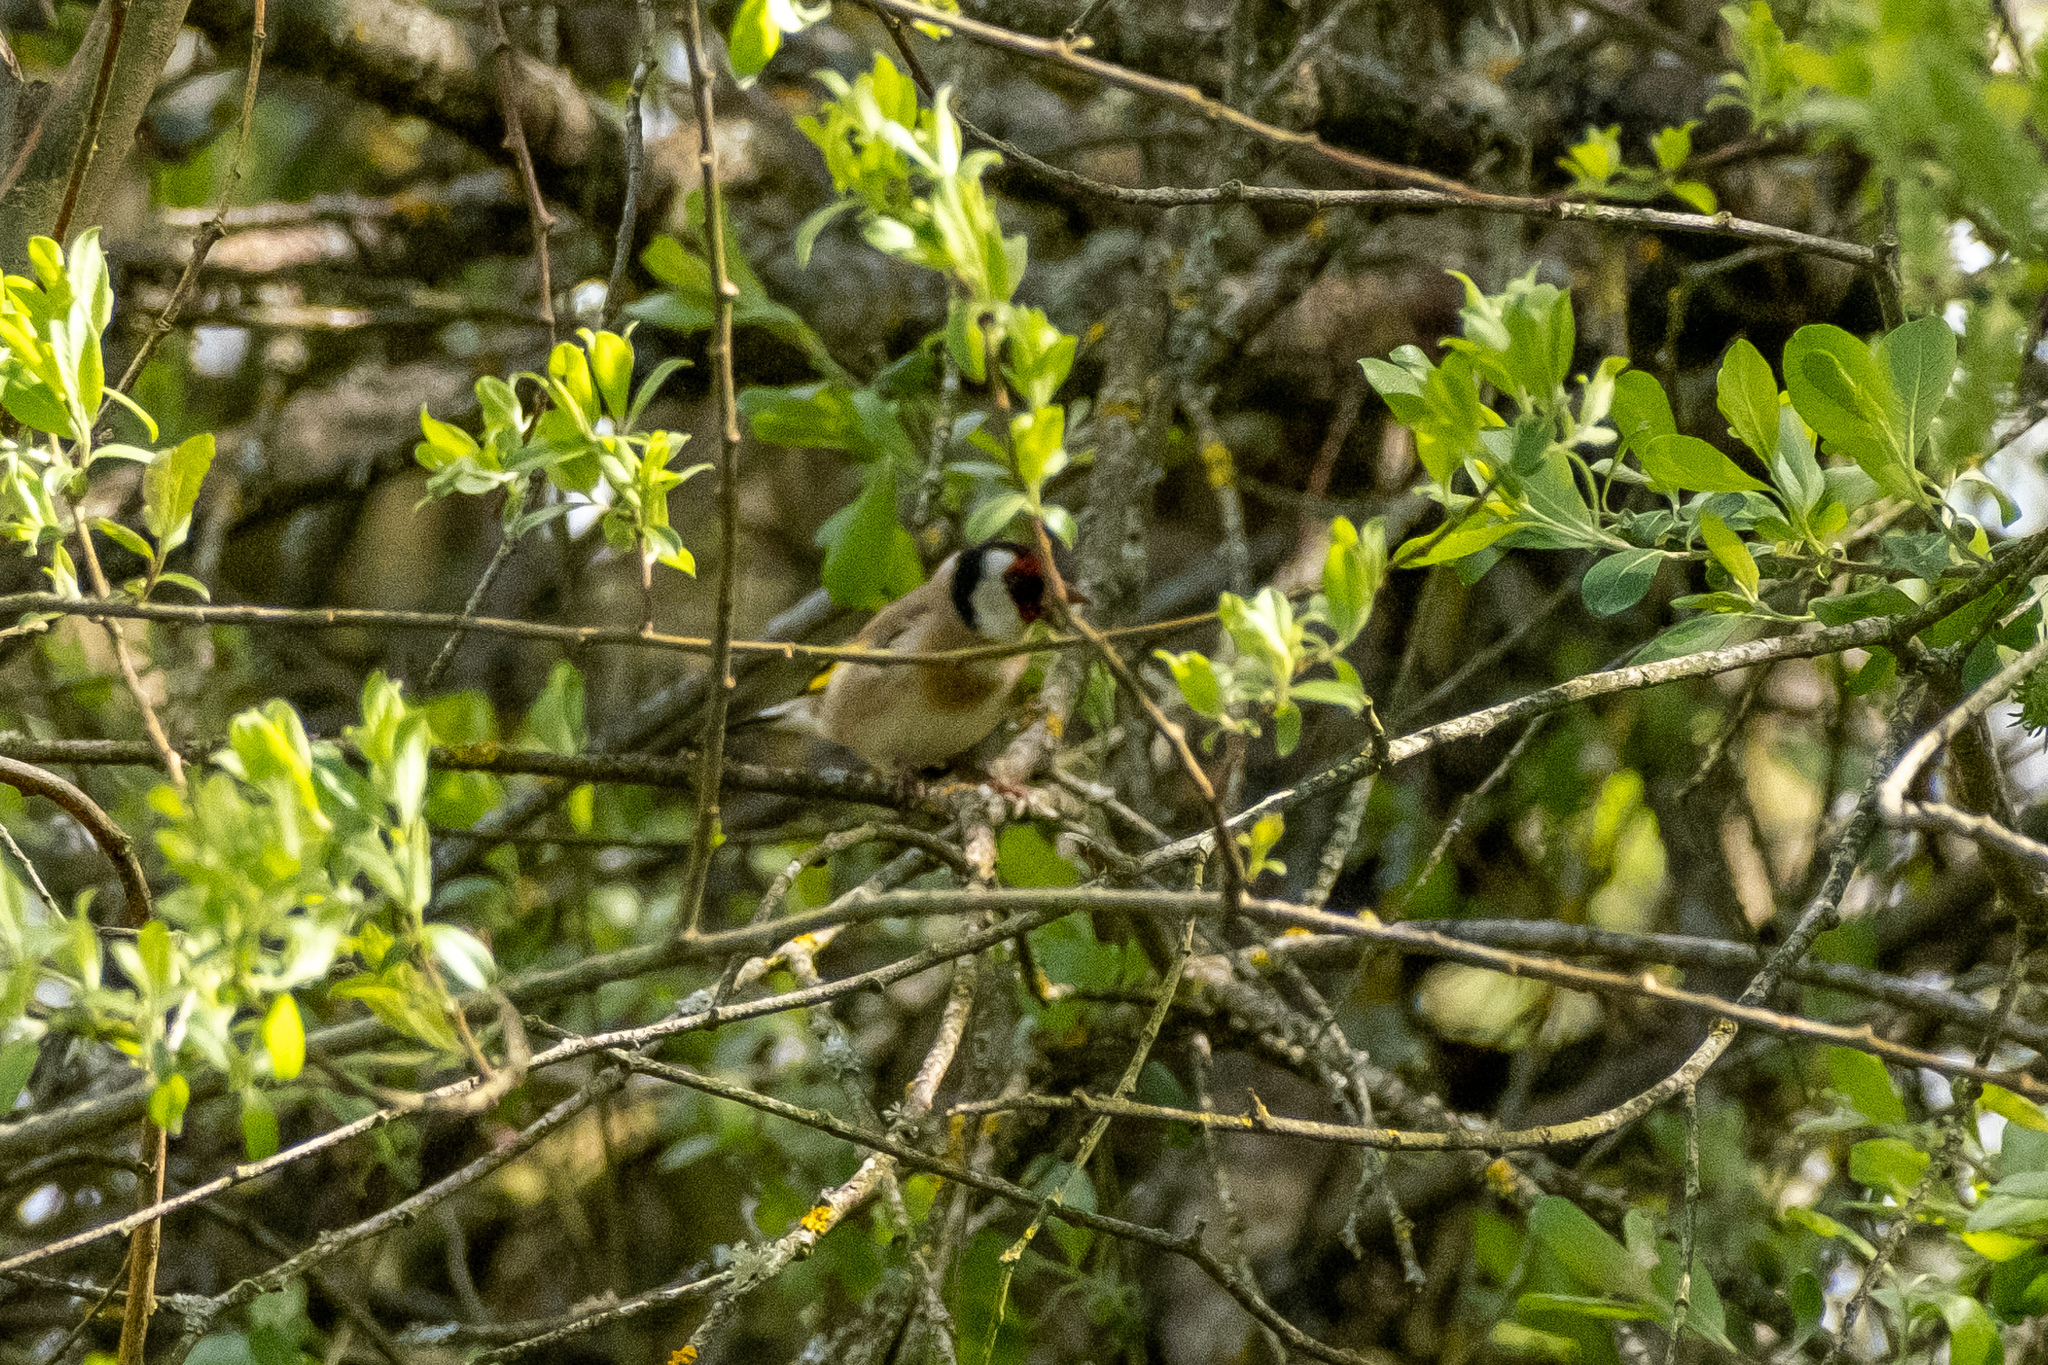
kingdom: Animalia
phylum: Chordata
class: Aves
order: Passeriformes
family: Fringillidae
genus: Carduelis
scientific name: Carduelis carduelis
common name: European goldfinch
